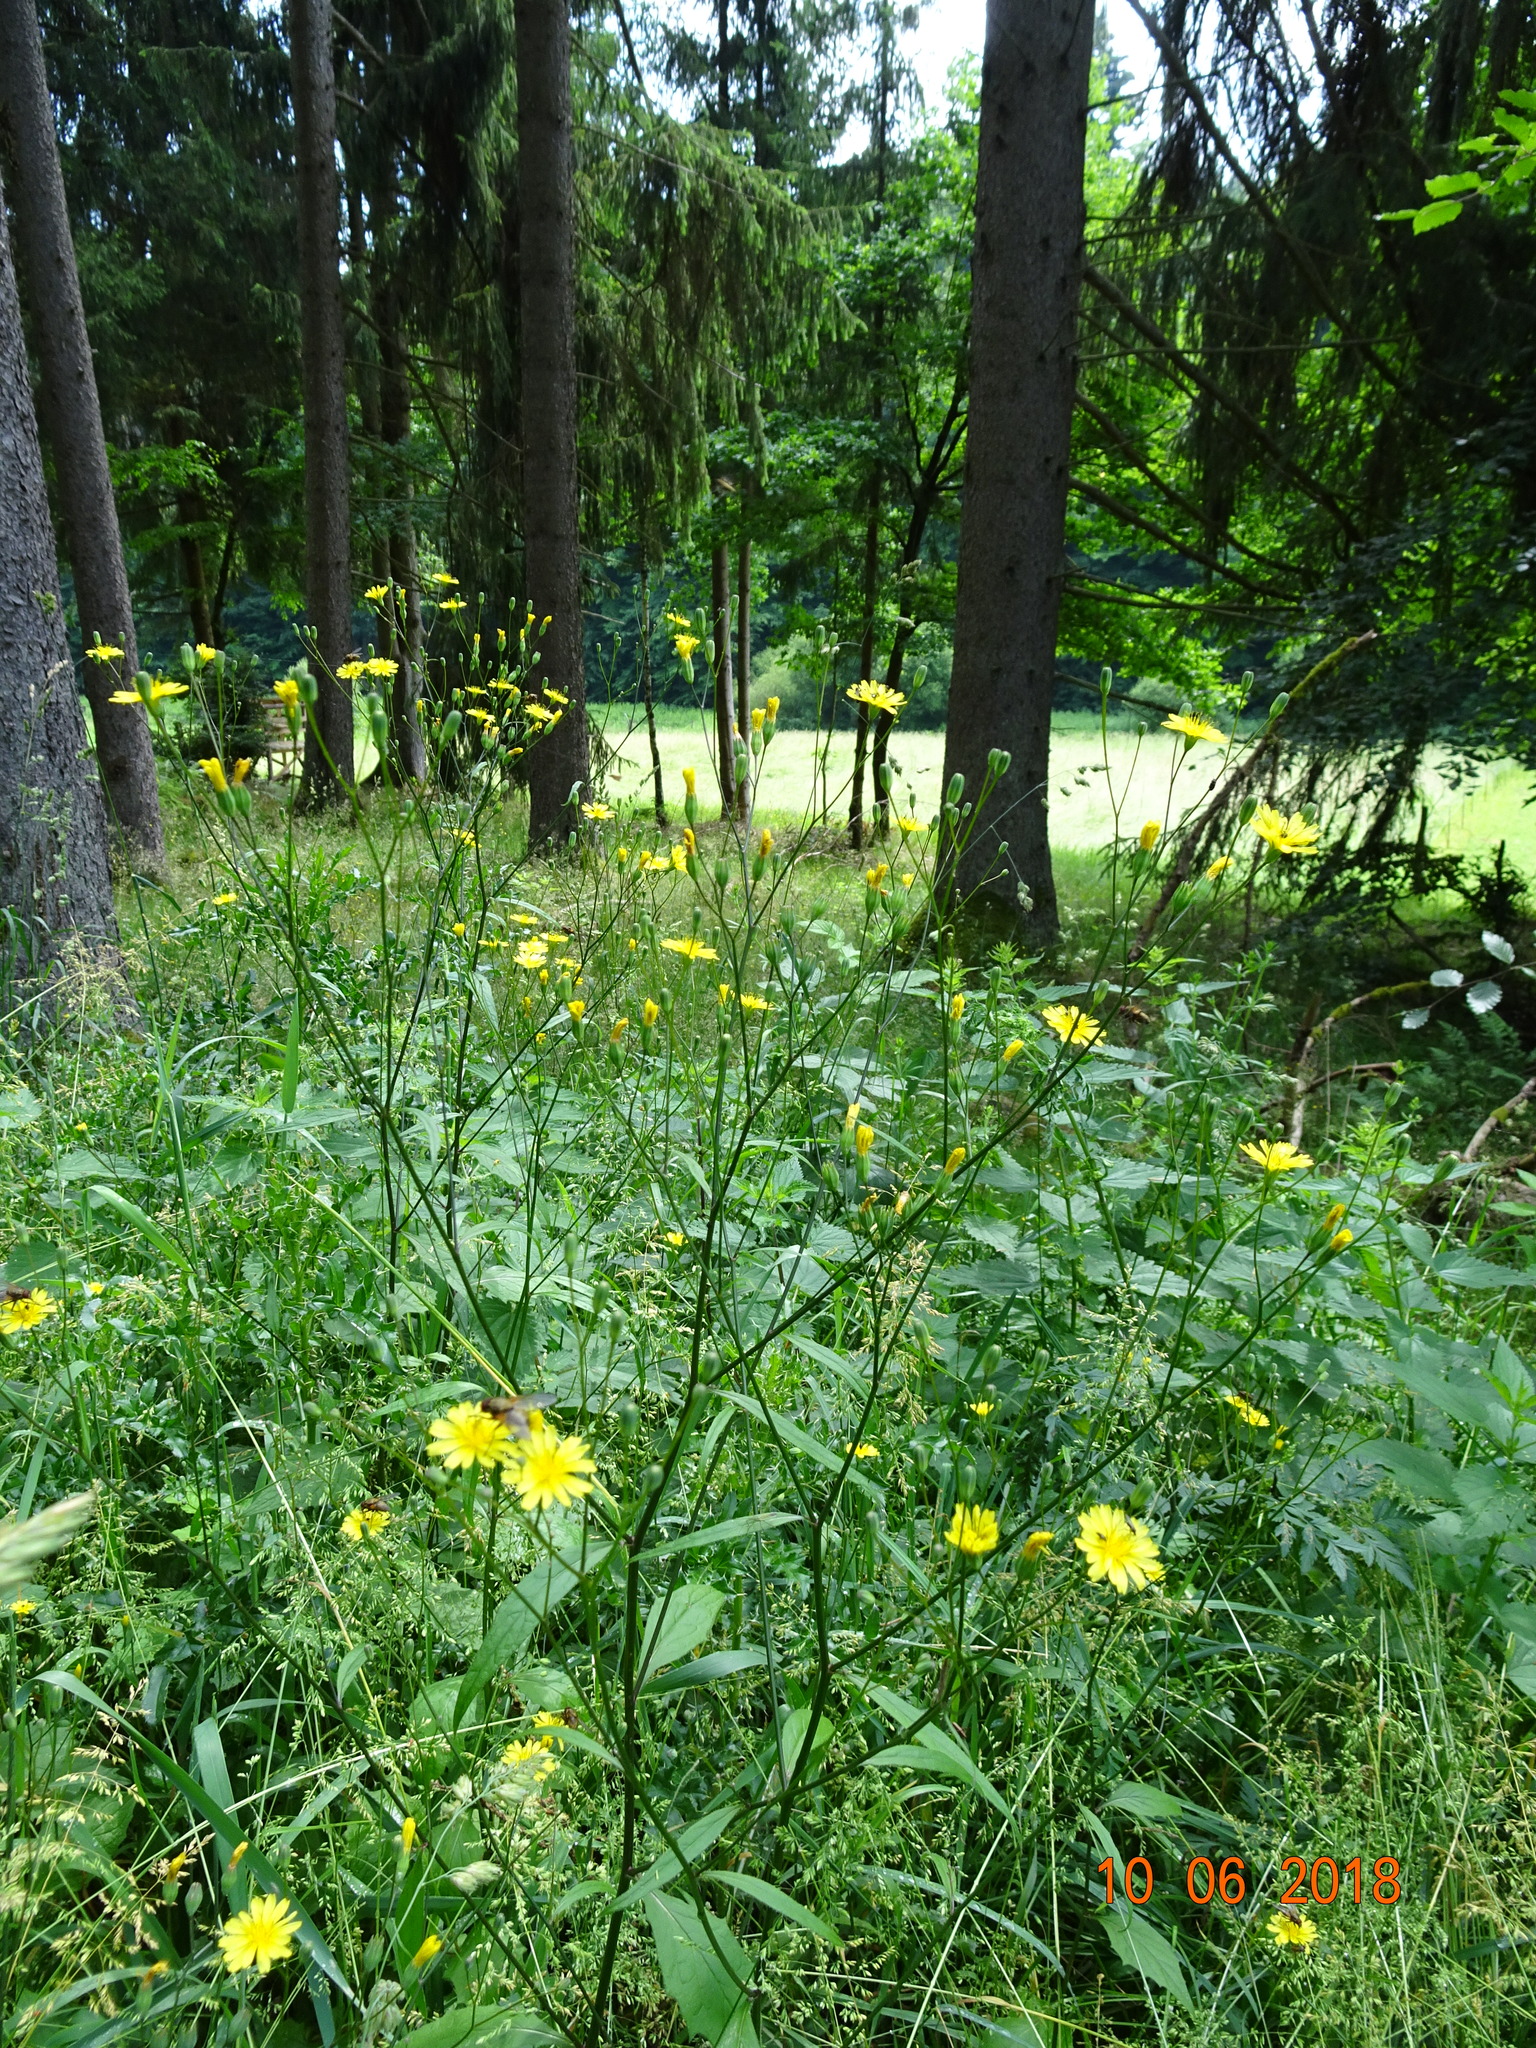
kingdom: Plantae
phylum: Tracheophyta
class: Magnoliopsida
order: Asterales
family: Asteraceae
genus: Lapsana
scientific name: Lapsana communis
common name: Nipplewort
